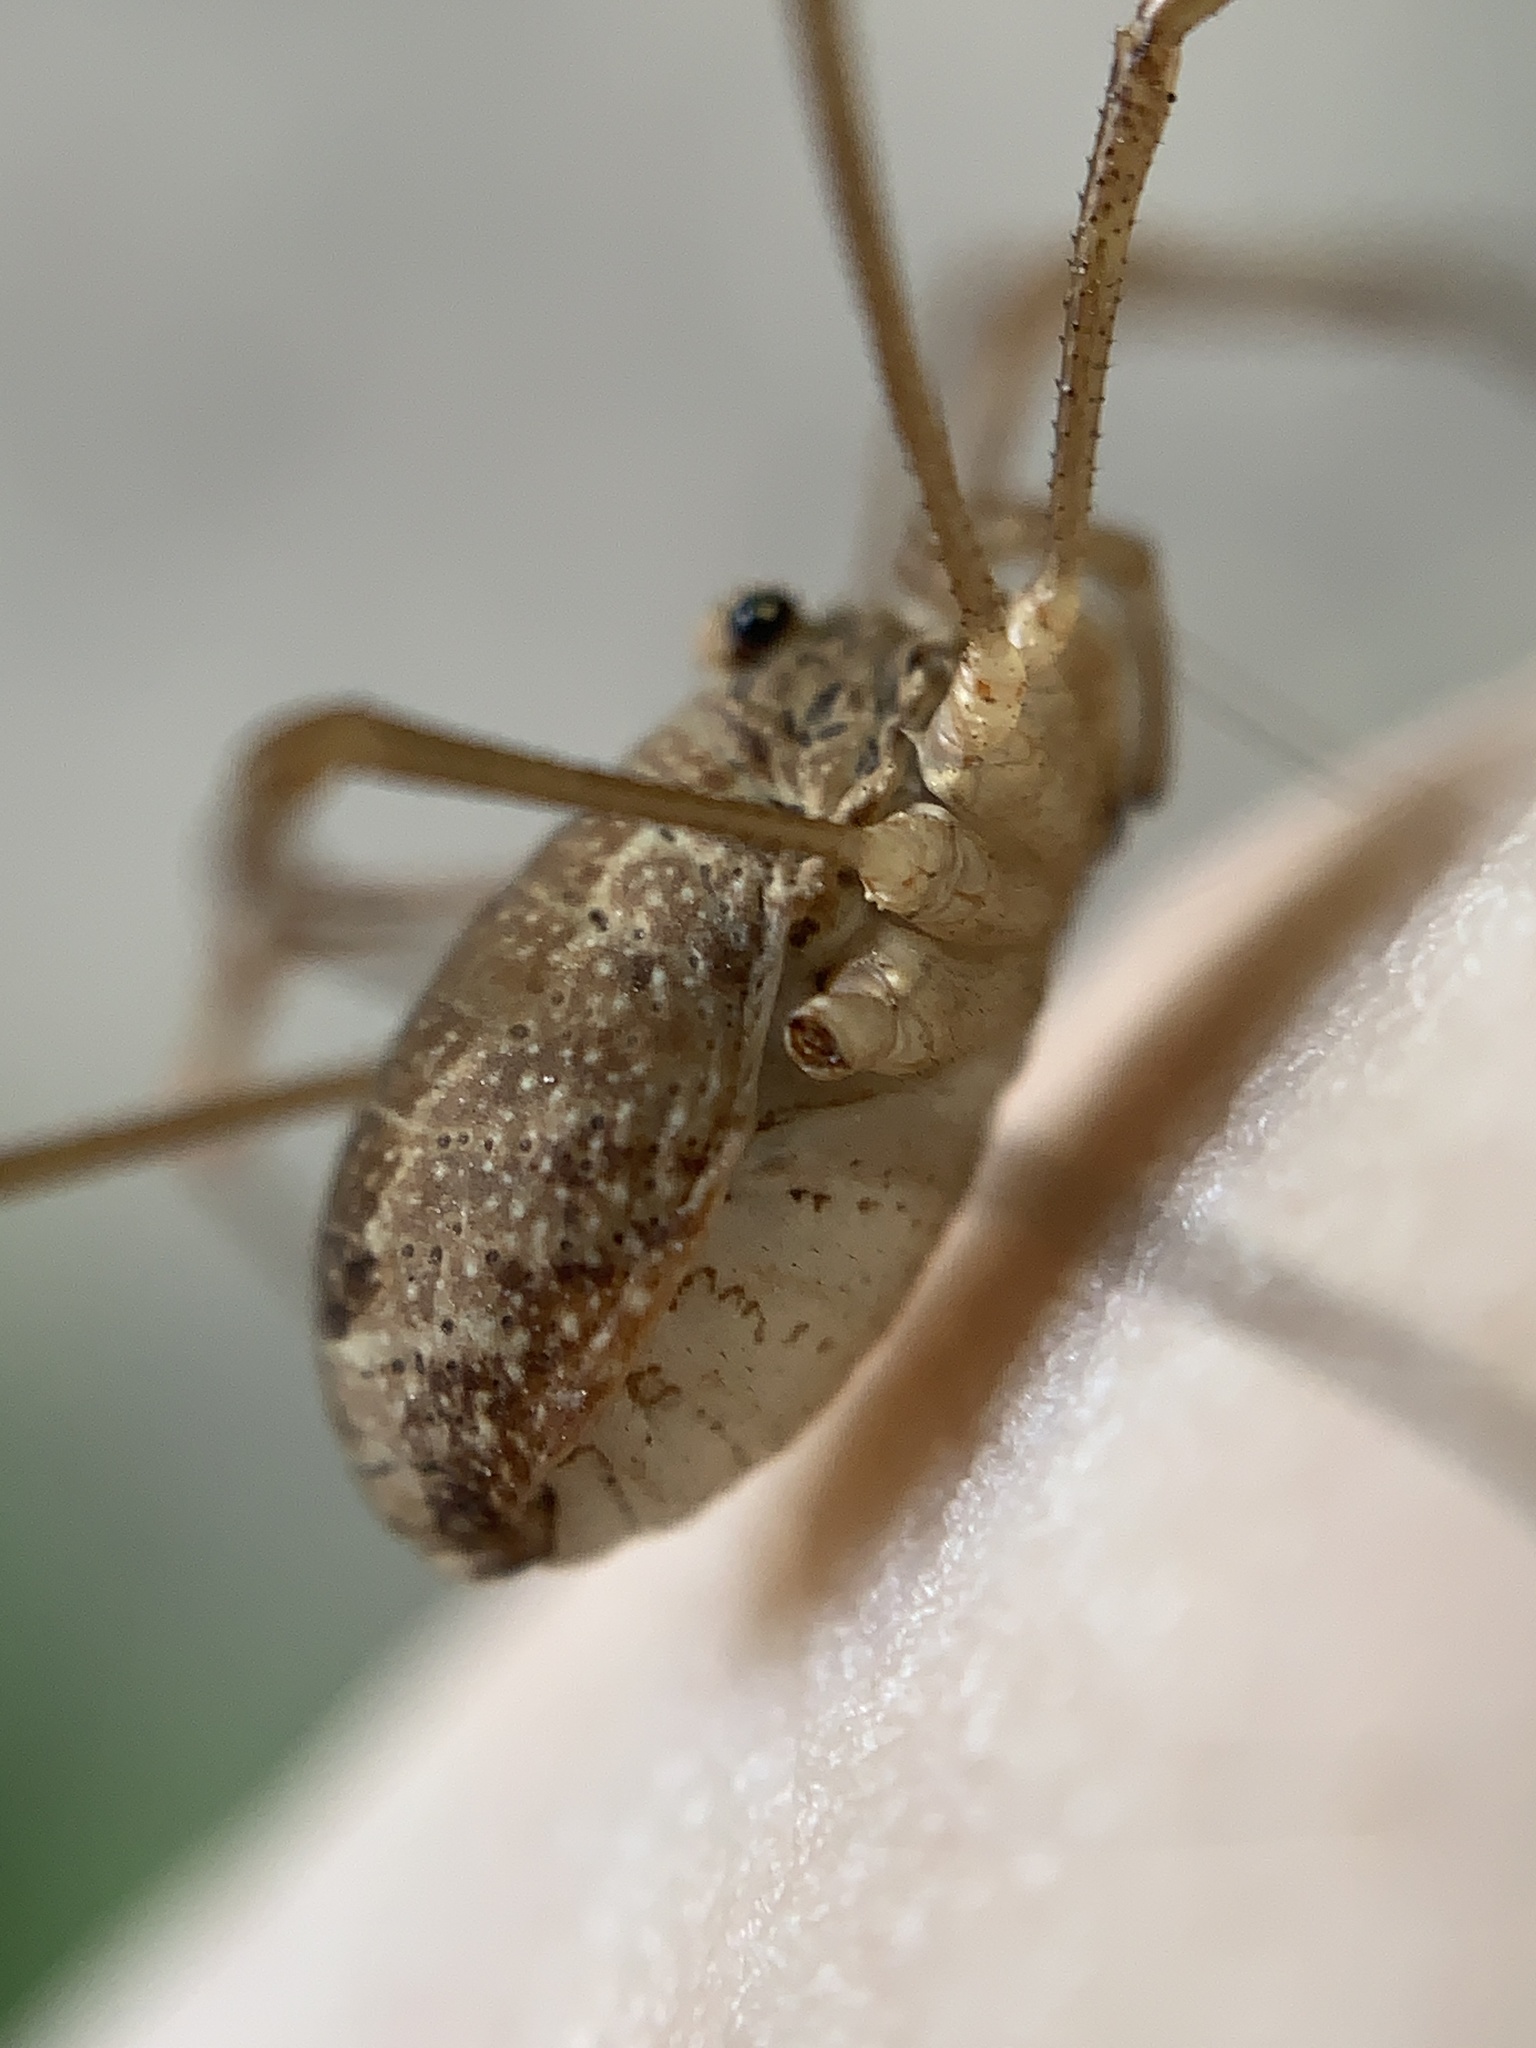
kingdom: Animalia
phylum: Arthropoda
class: Arachnida
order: Opiliones
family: Phalangiidae
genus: Rilaena
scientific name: Rilaena triangularis
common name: Spring harvestman
